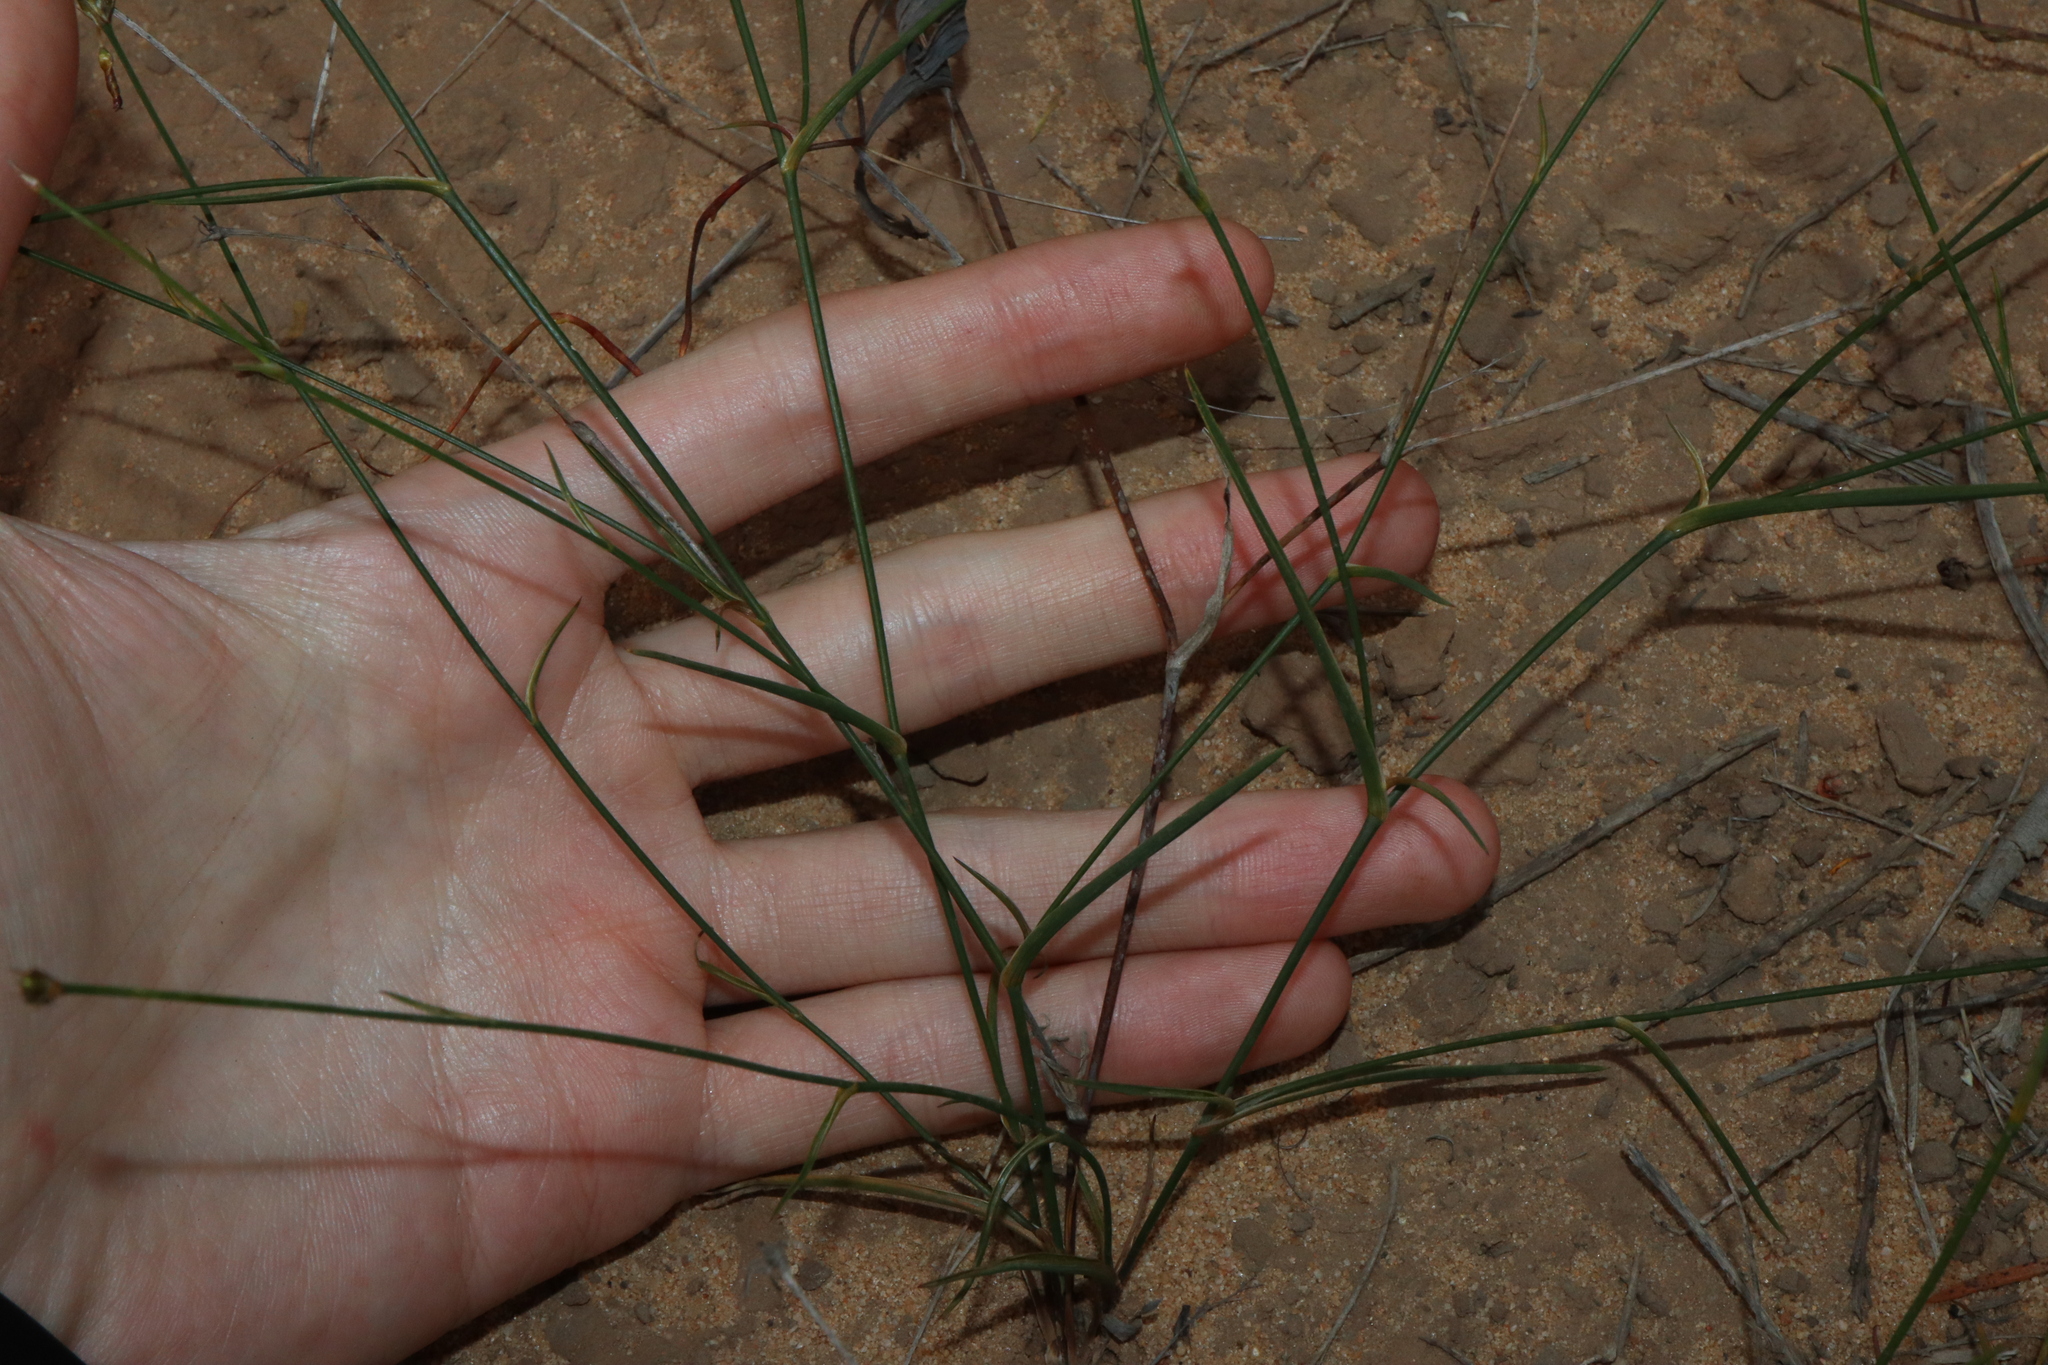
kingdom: Plantae
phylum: Tracheophyta
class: Liliopsida
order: Asparagales
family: Asphodelaceae
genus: Tricoryne
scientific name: Tricoryne elatior
